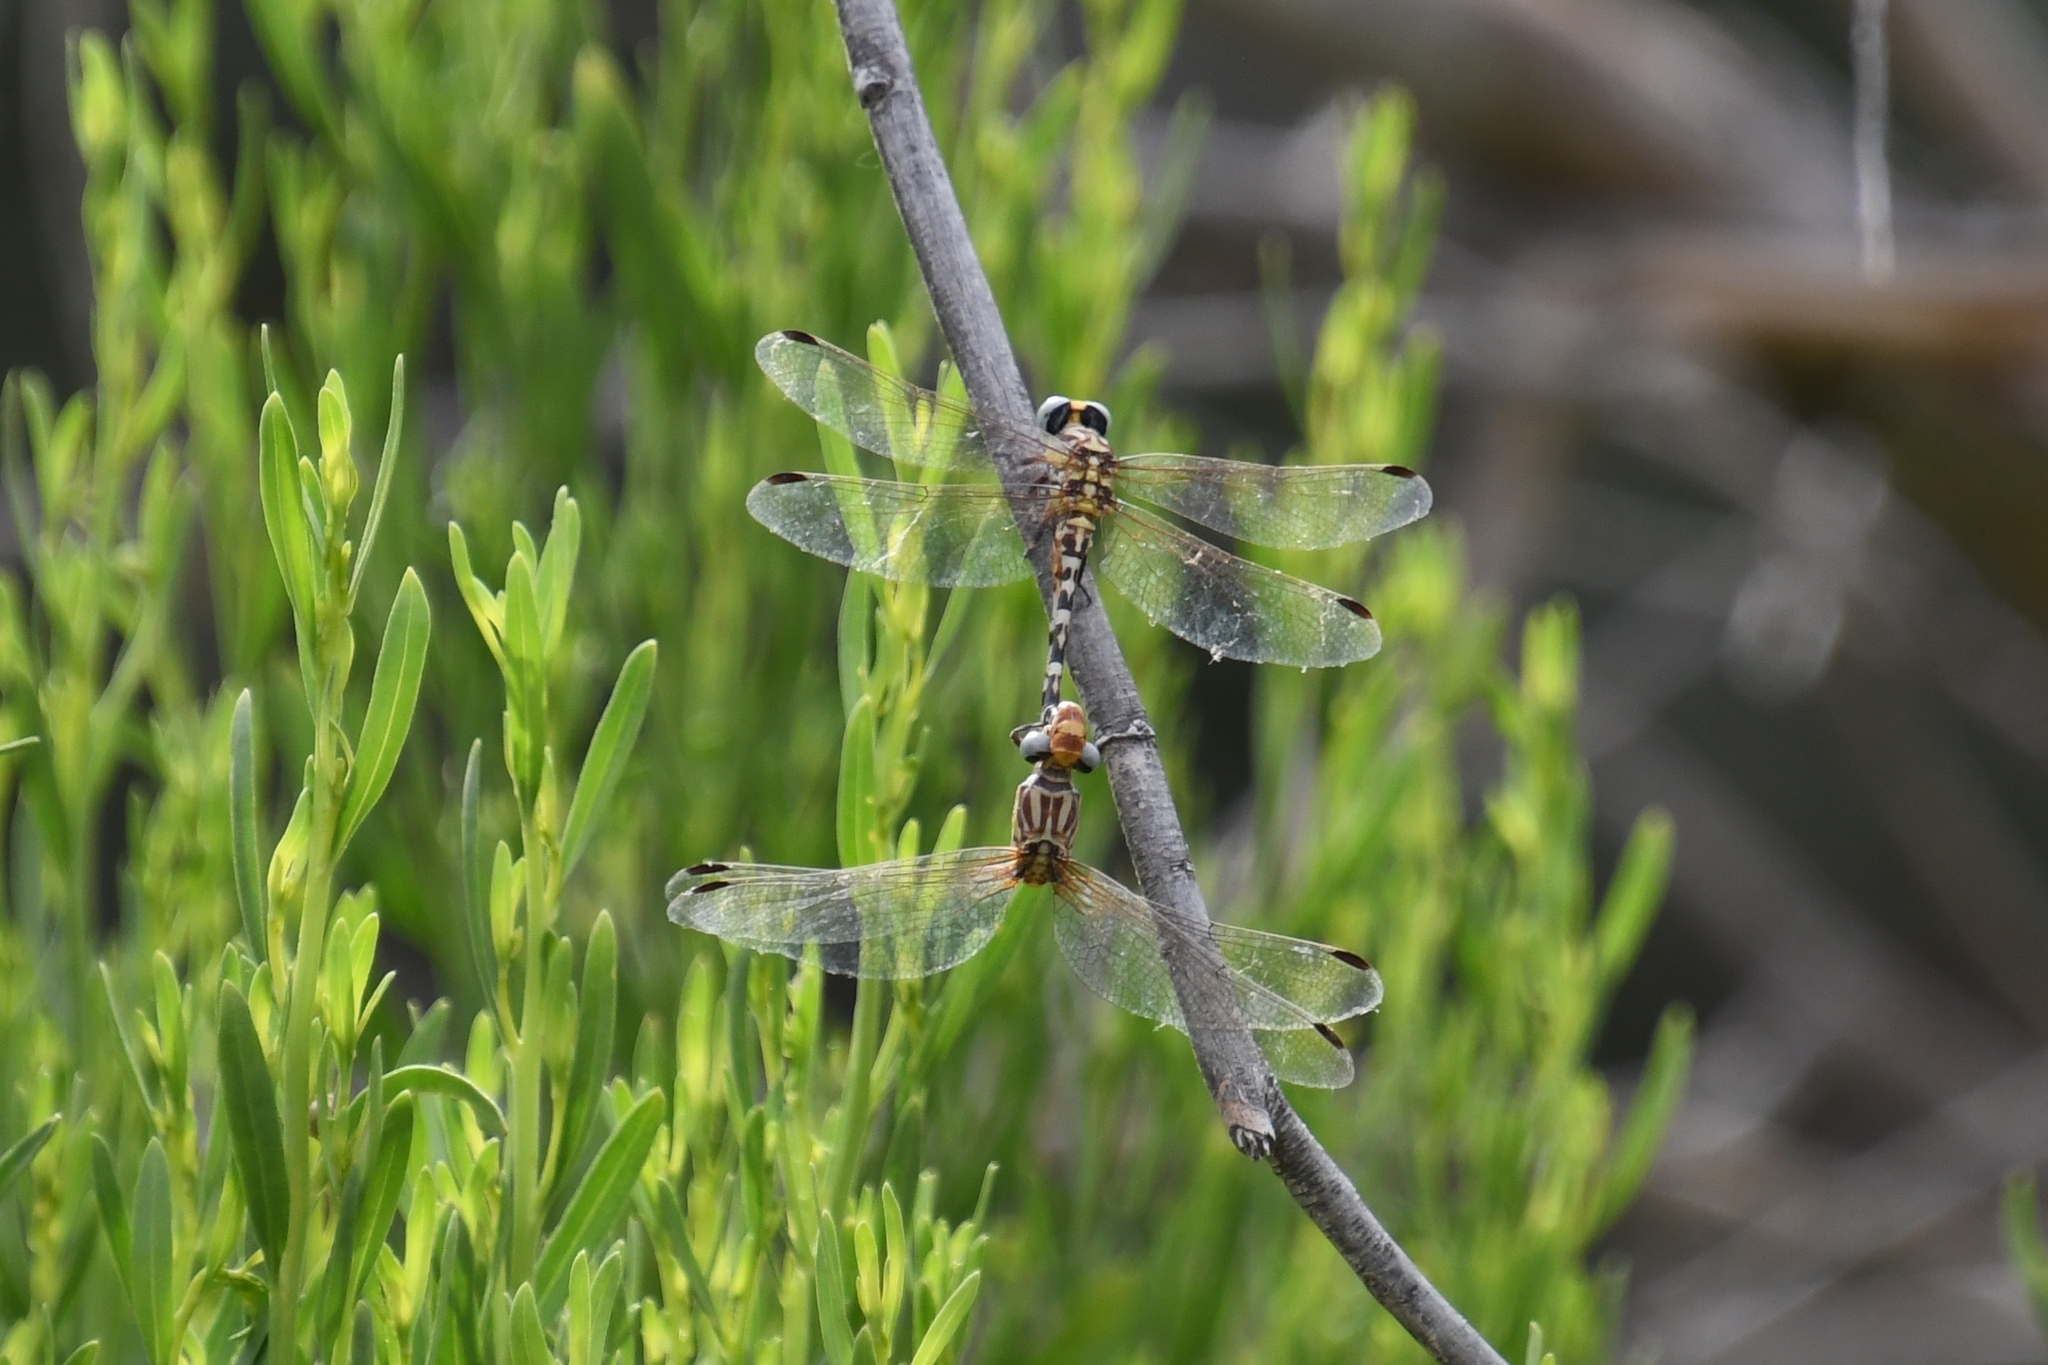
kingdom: Animalia
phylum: Arthropoda
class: Insecta
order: Odonata
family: Gomphidae
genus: Erpetogomphus
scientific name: Erpetogomphus compositus
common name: White-belted ringtail
